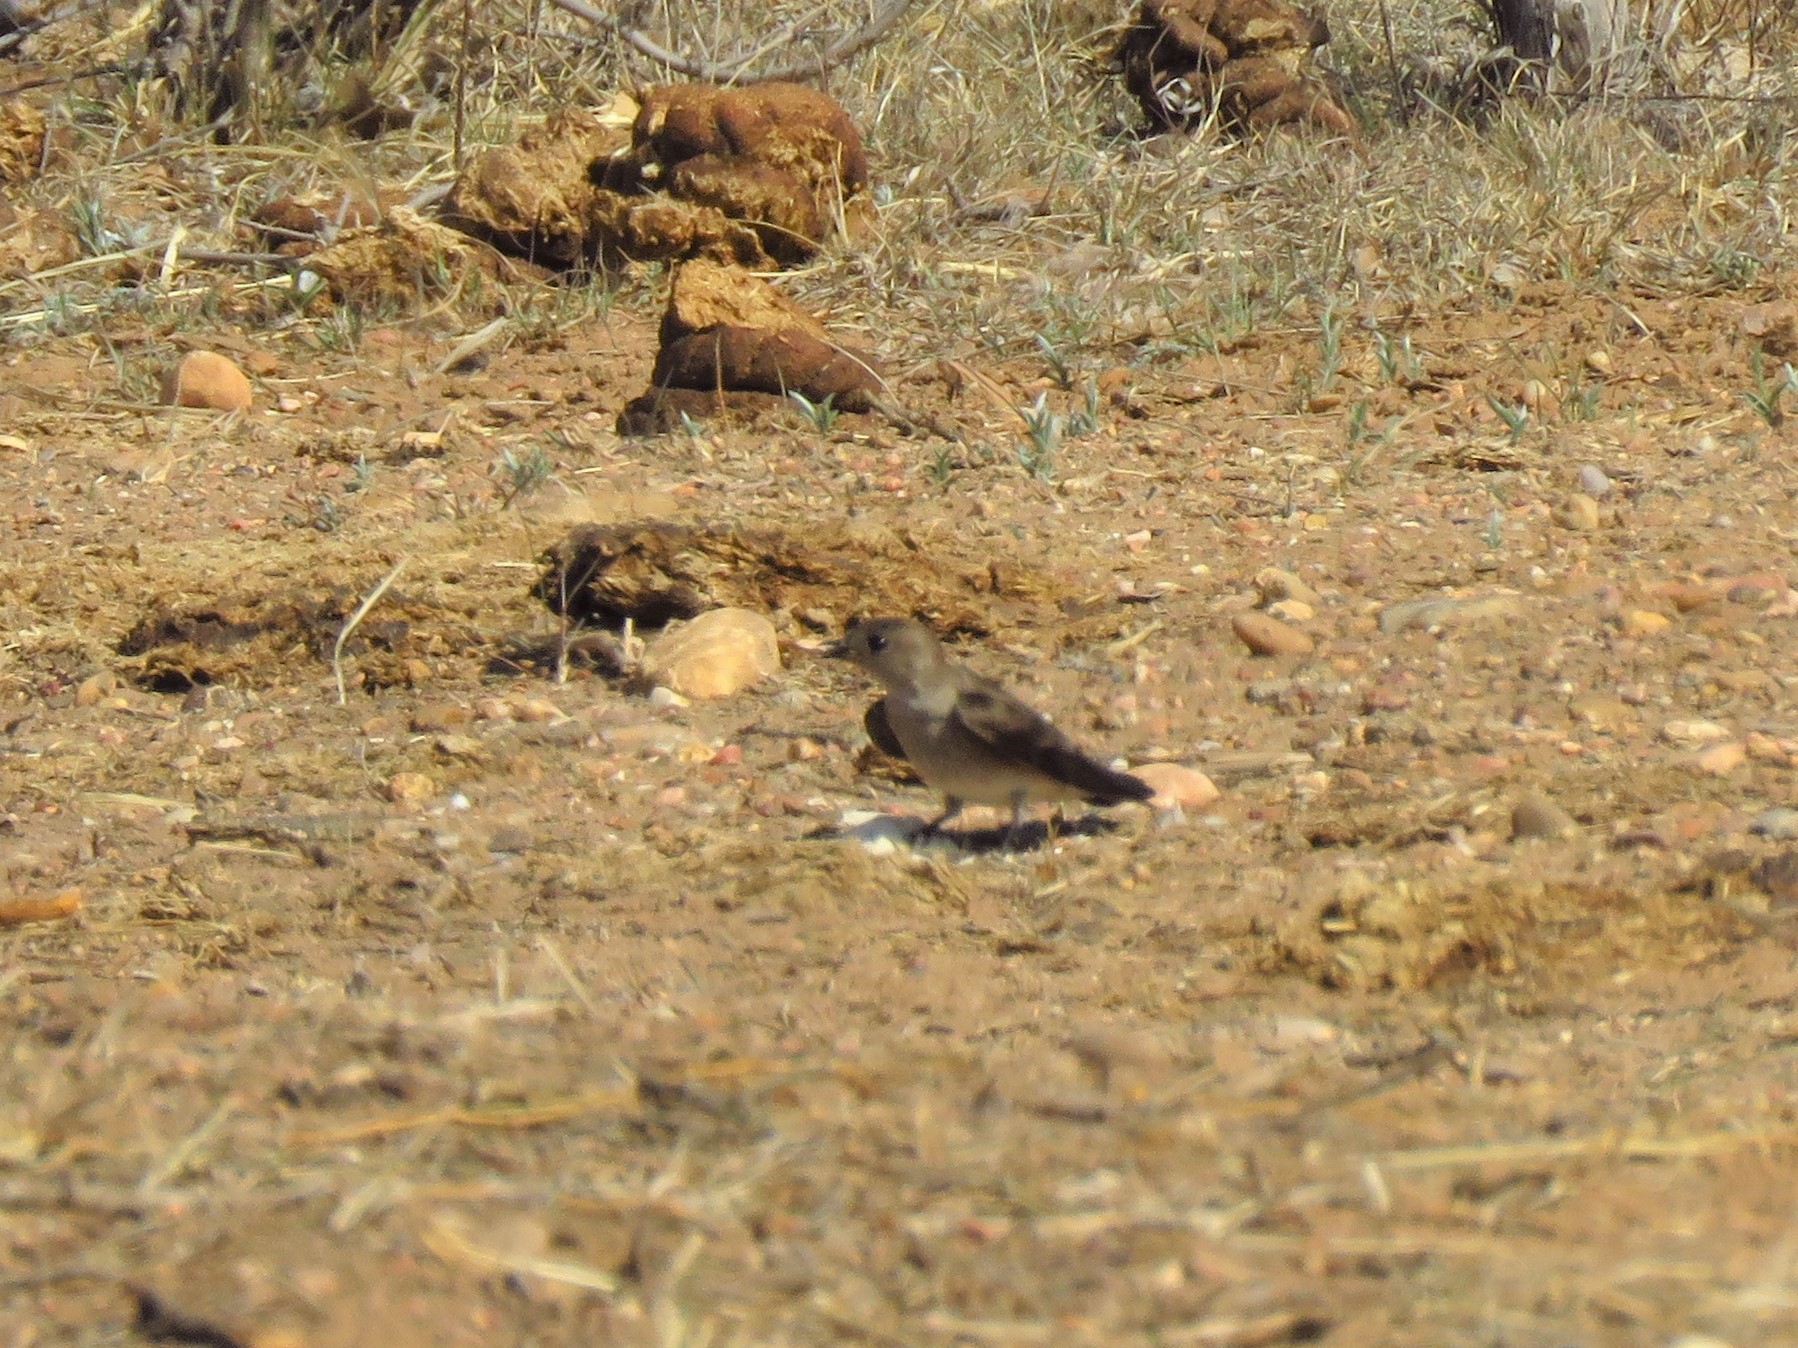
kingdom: Animalia
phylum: Chordata
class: Aves
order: Passeriformes
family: Hirundinidae
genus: Stelgidopteryx
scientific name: Stelgidopteryx serripennis
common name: Northern rough-winged swallow
